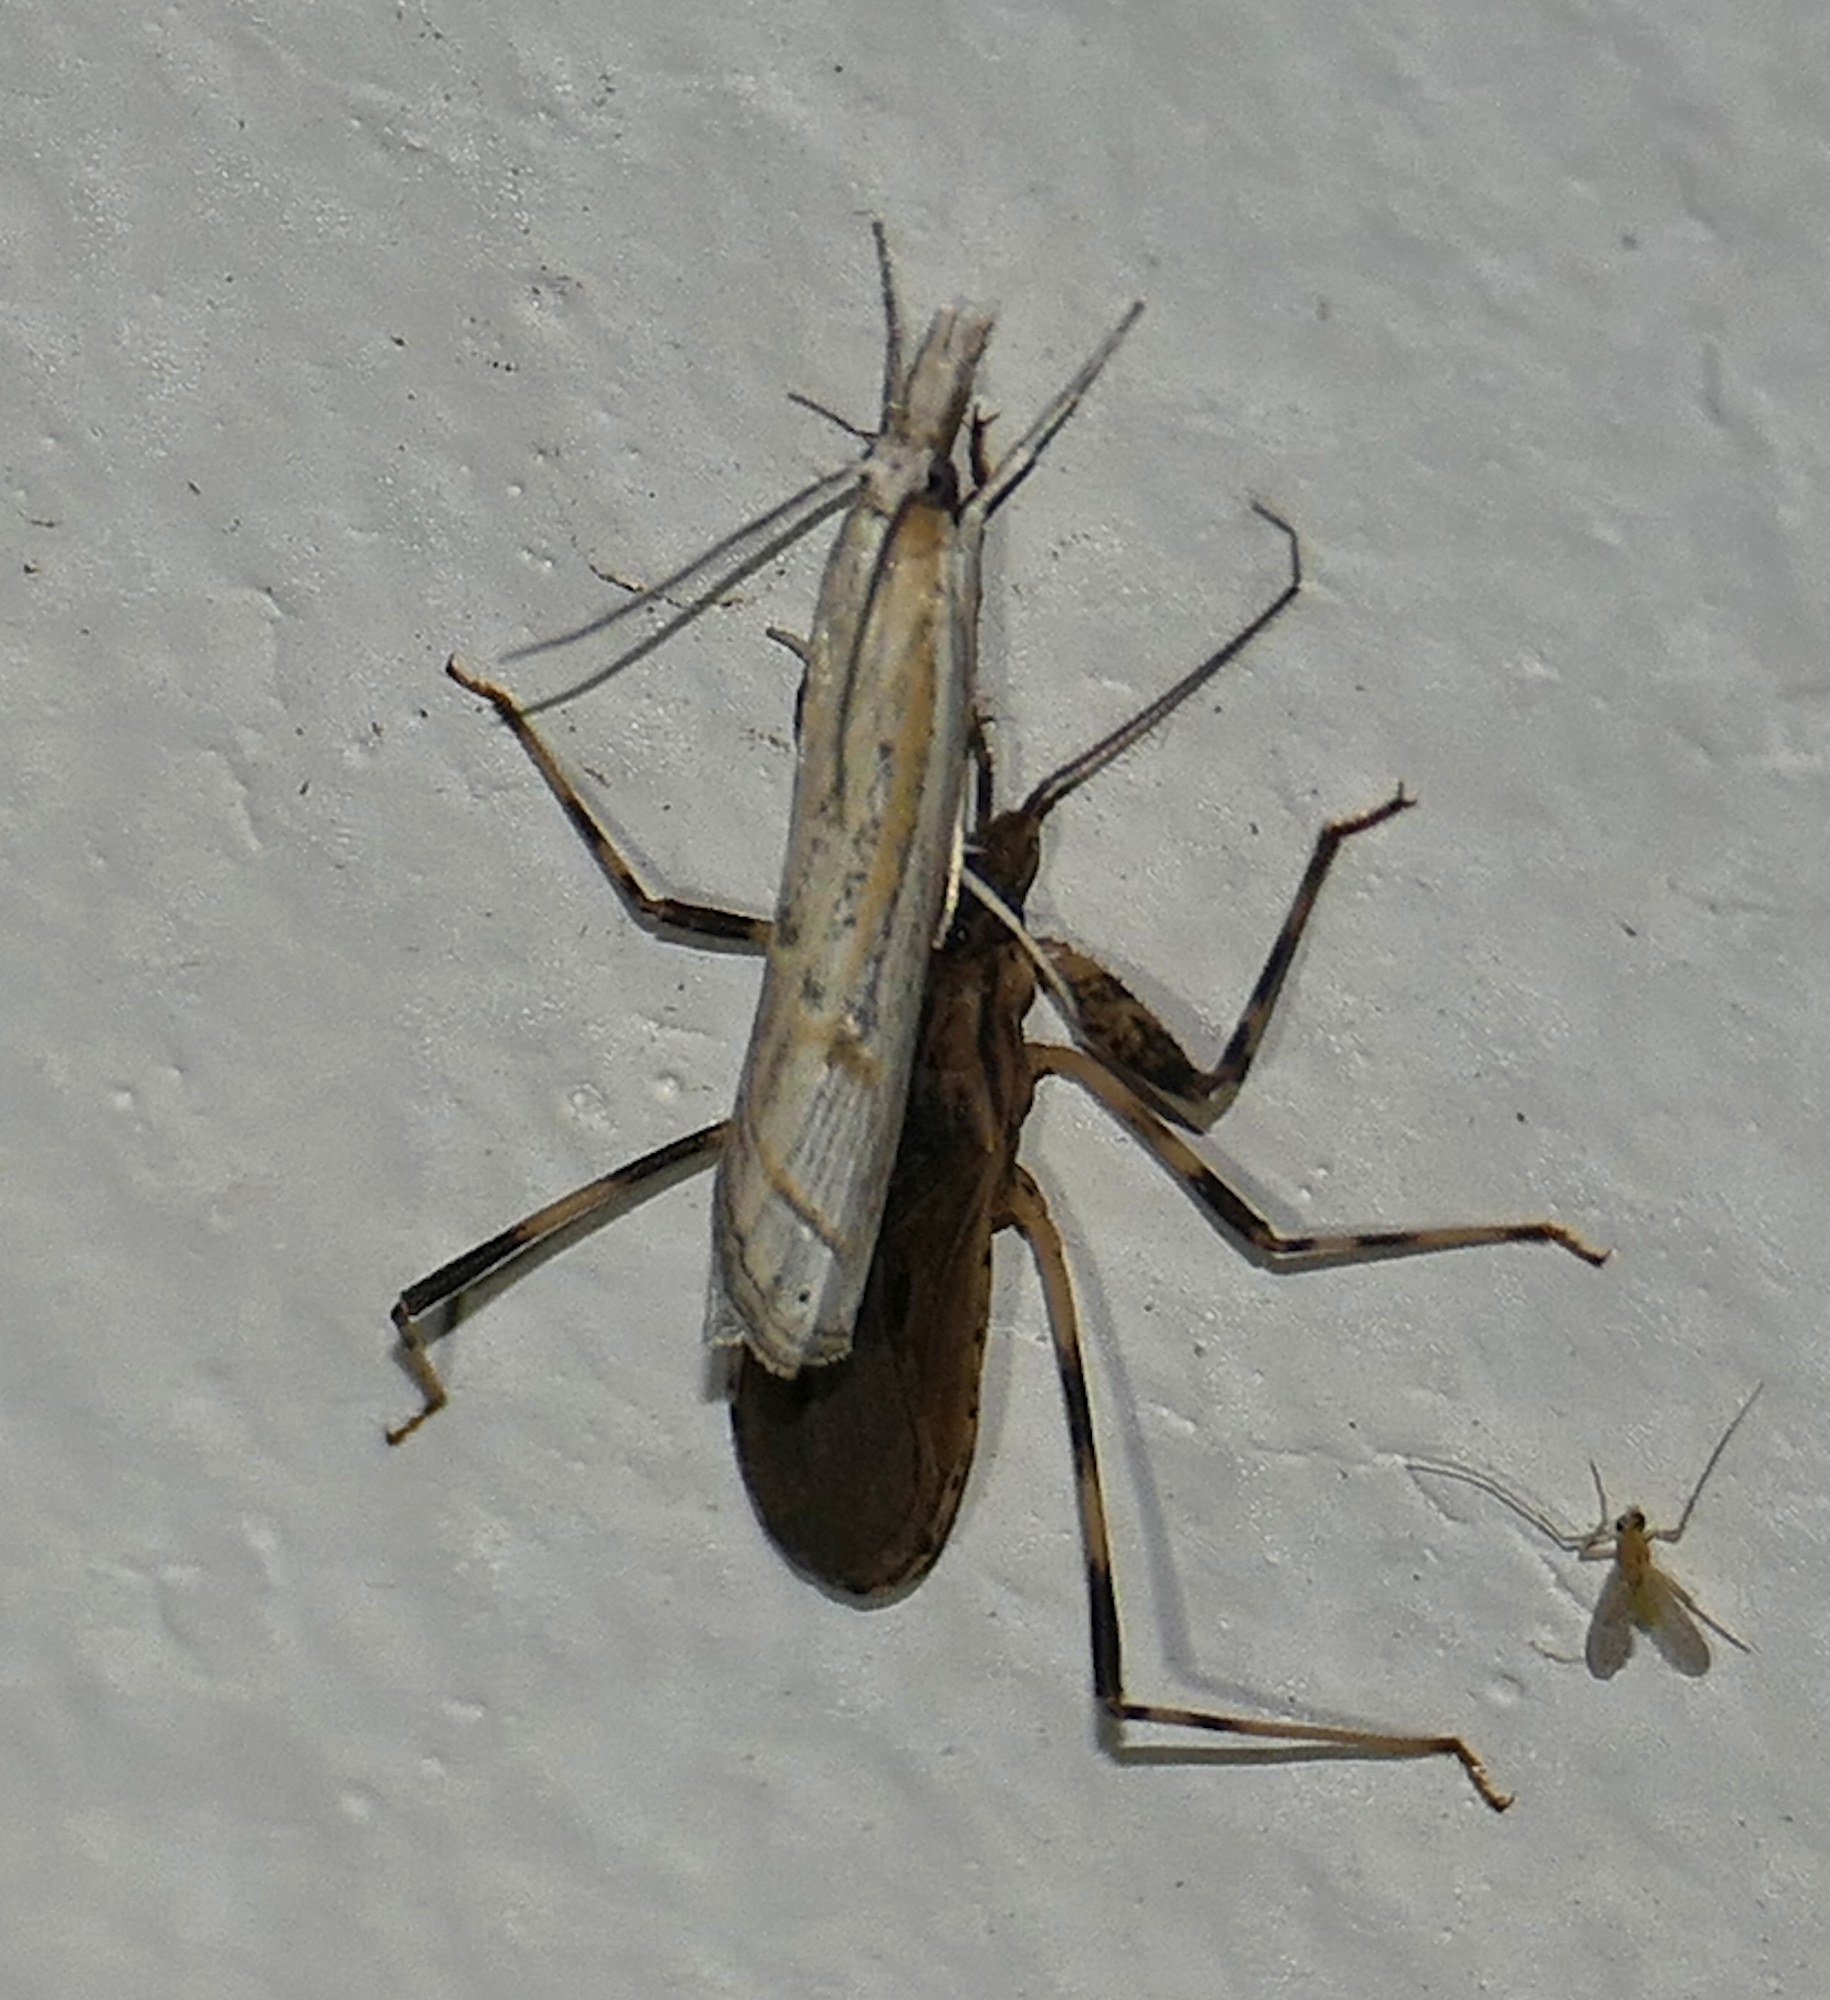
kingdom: Animalia
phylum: Arthropoda
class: Insecta
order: Hemiptera
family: Reduviidae
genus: Oncocephalus
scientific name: Oncocephalus geniculatus
